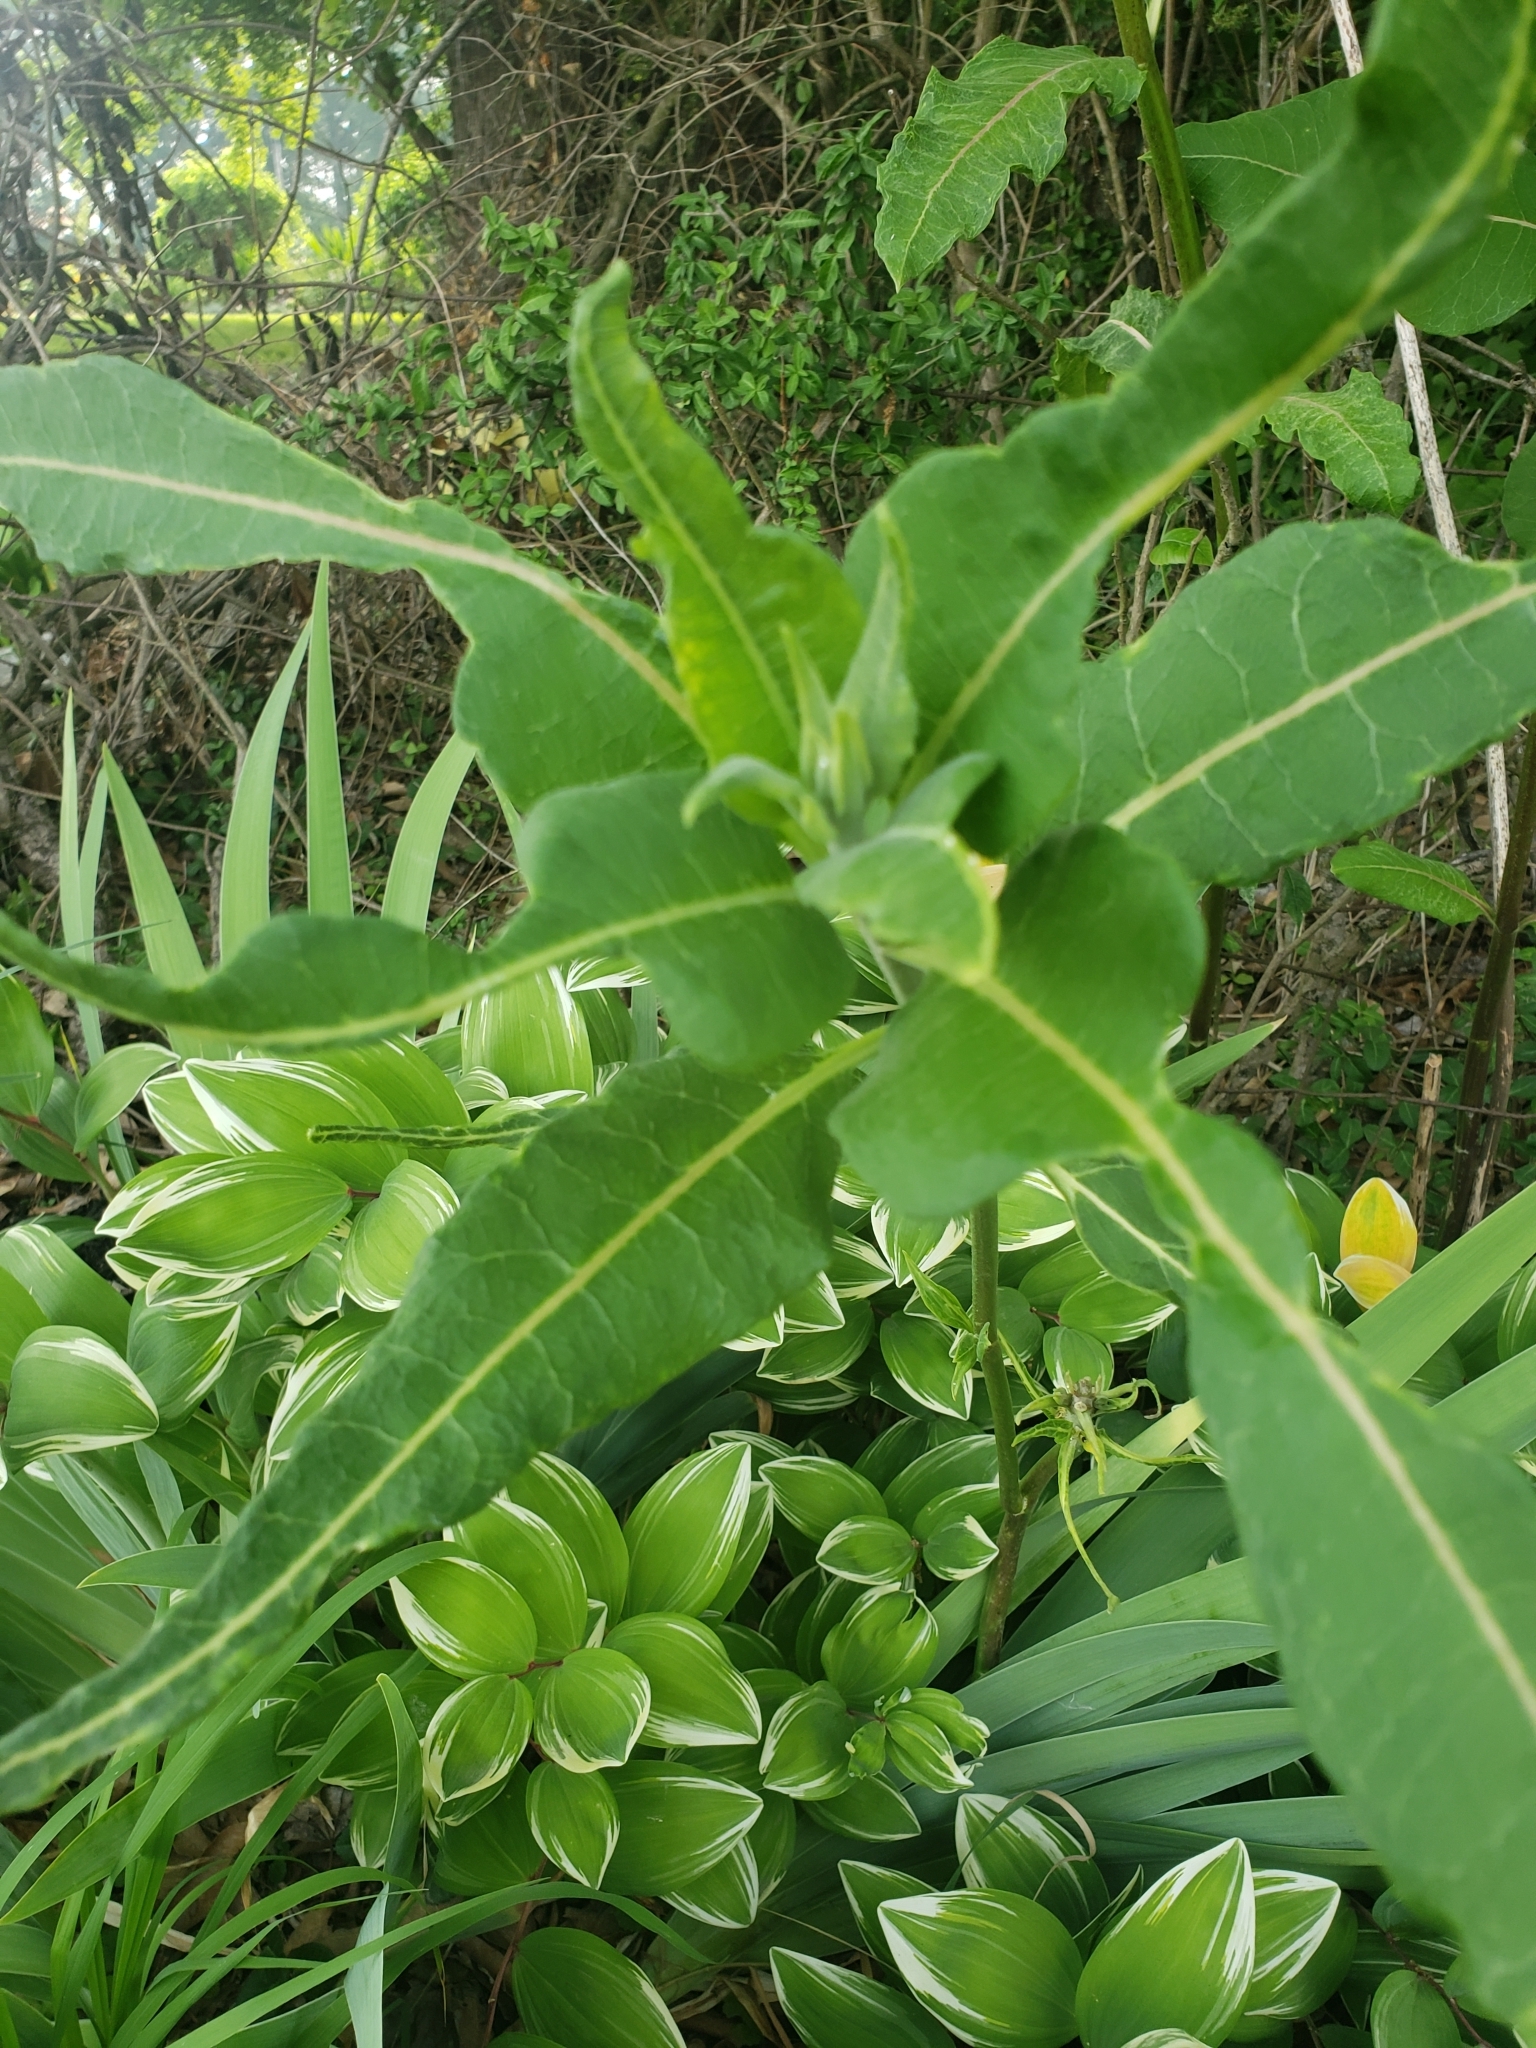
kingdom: Plantae
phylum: Tracheophyta
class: Magnoliopsida
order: Gentianales
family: Apocynaceae
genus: Asclepias
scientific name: Asclepias syriaca
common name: Common milkweed
